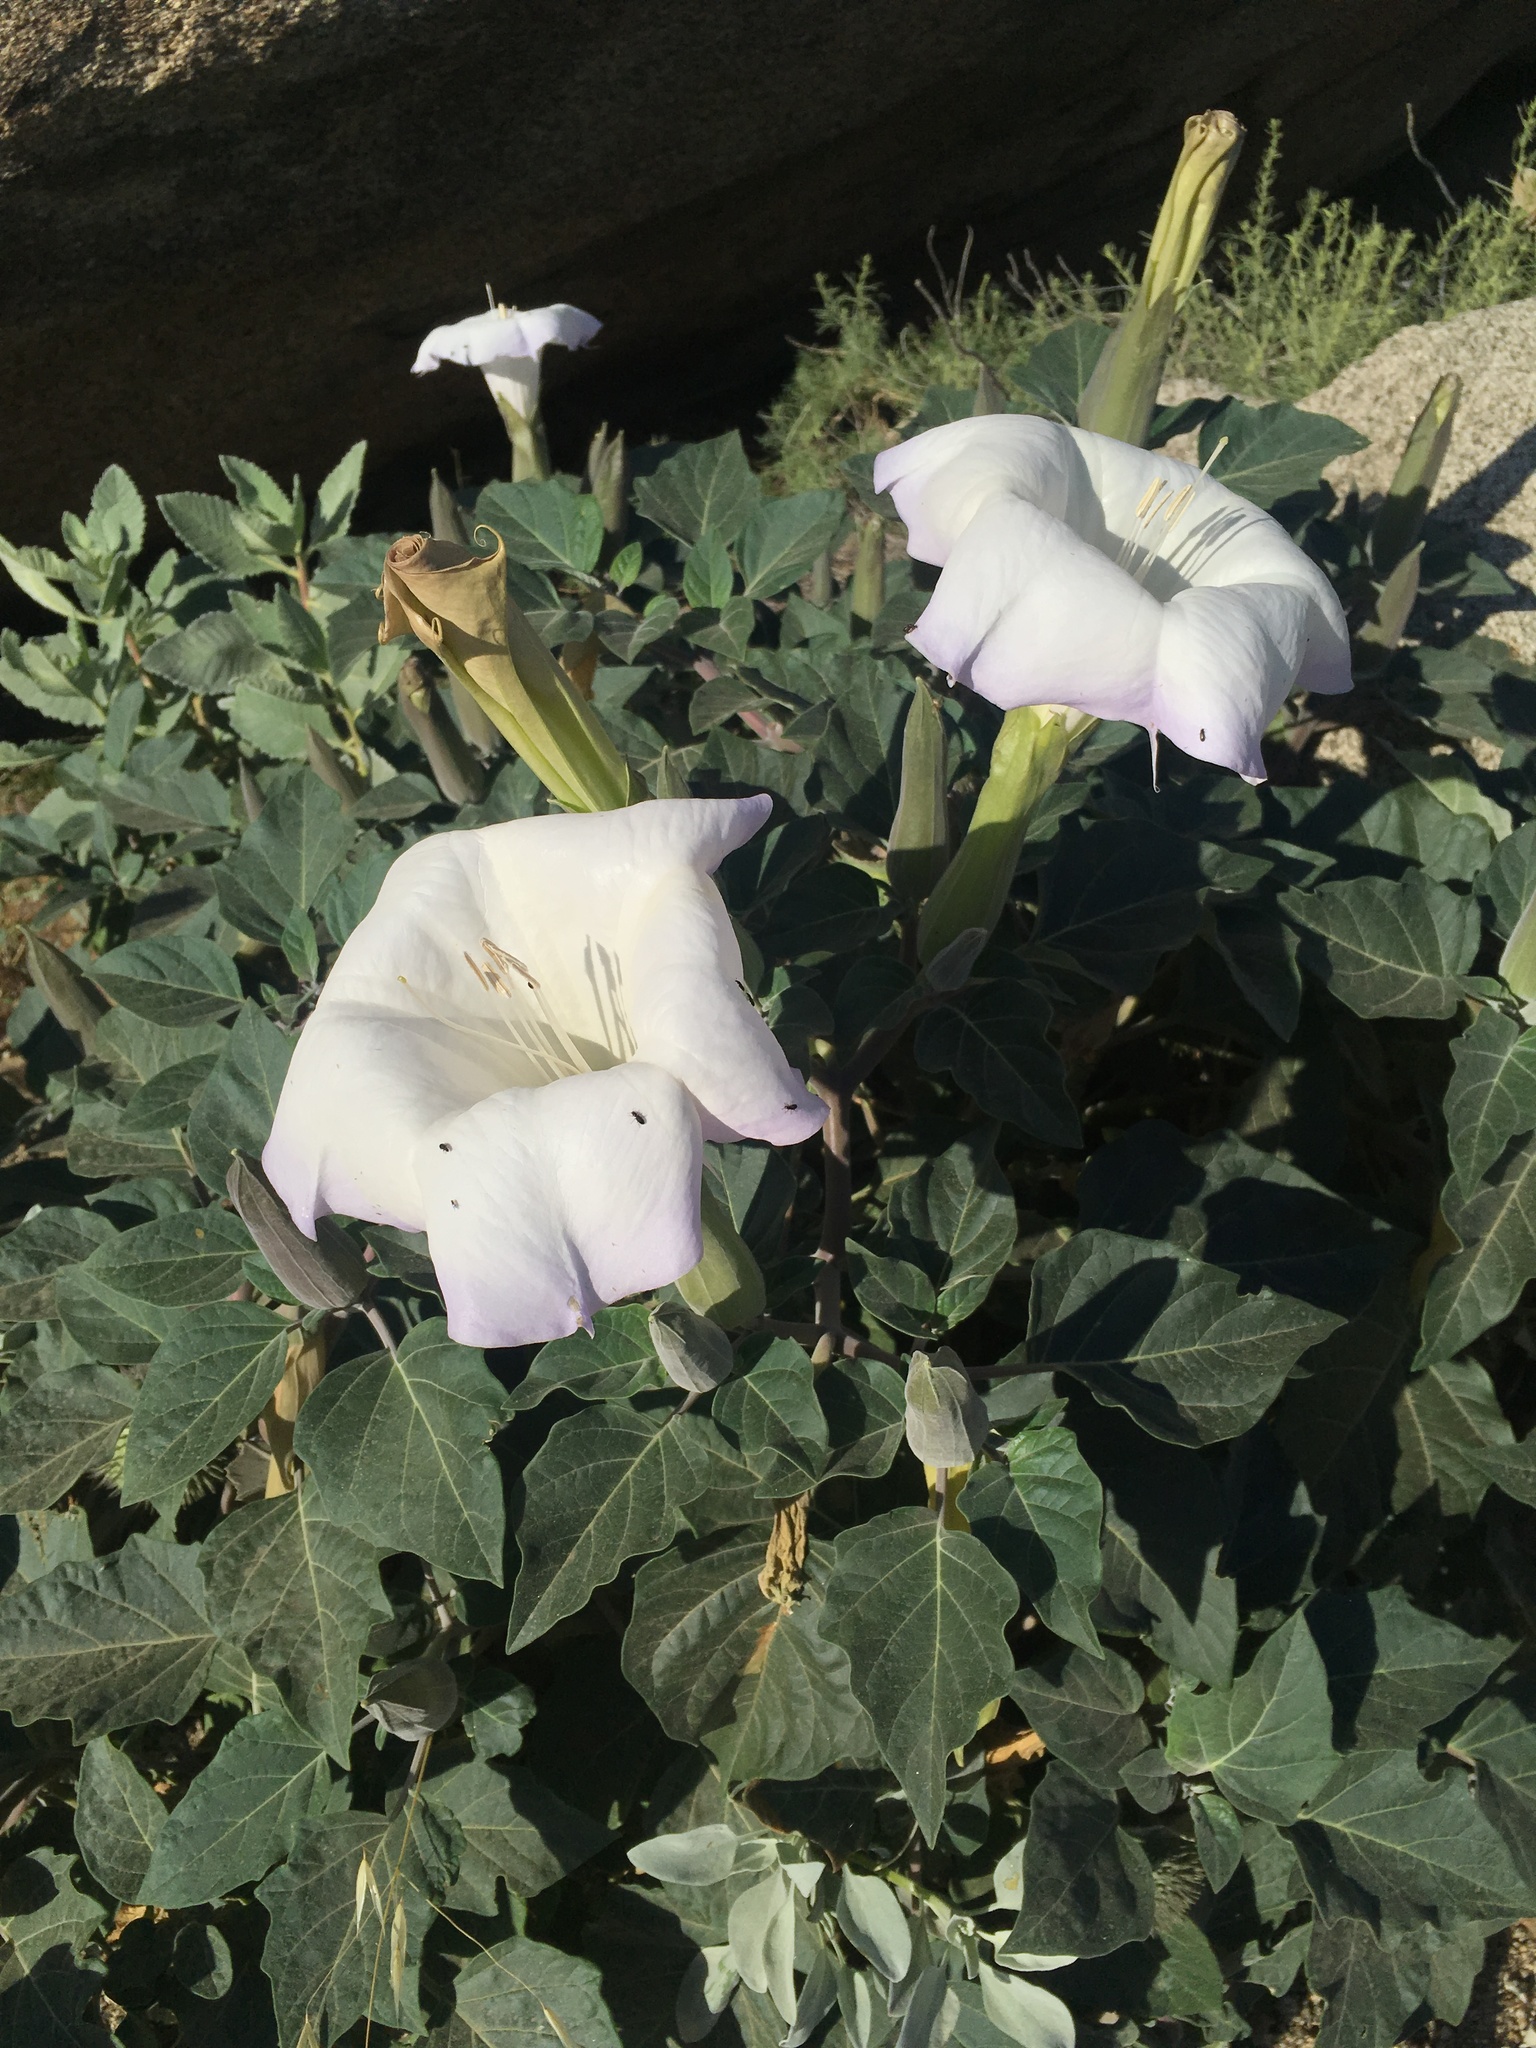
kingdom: Plantae
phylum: Tracheophyta
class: Magnoliopsida
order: Solanales
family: Solanaceae
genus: Datura
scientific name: Datura wrightii
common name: Sacred thorn-apple
